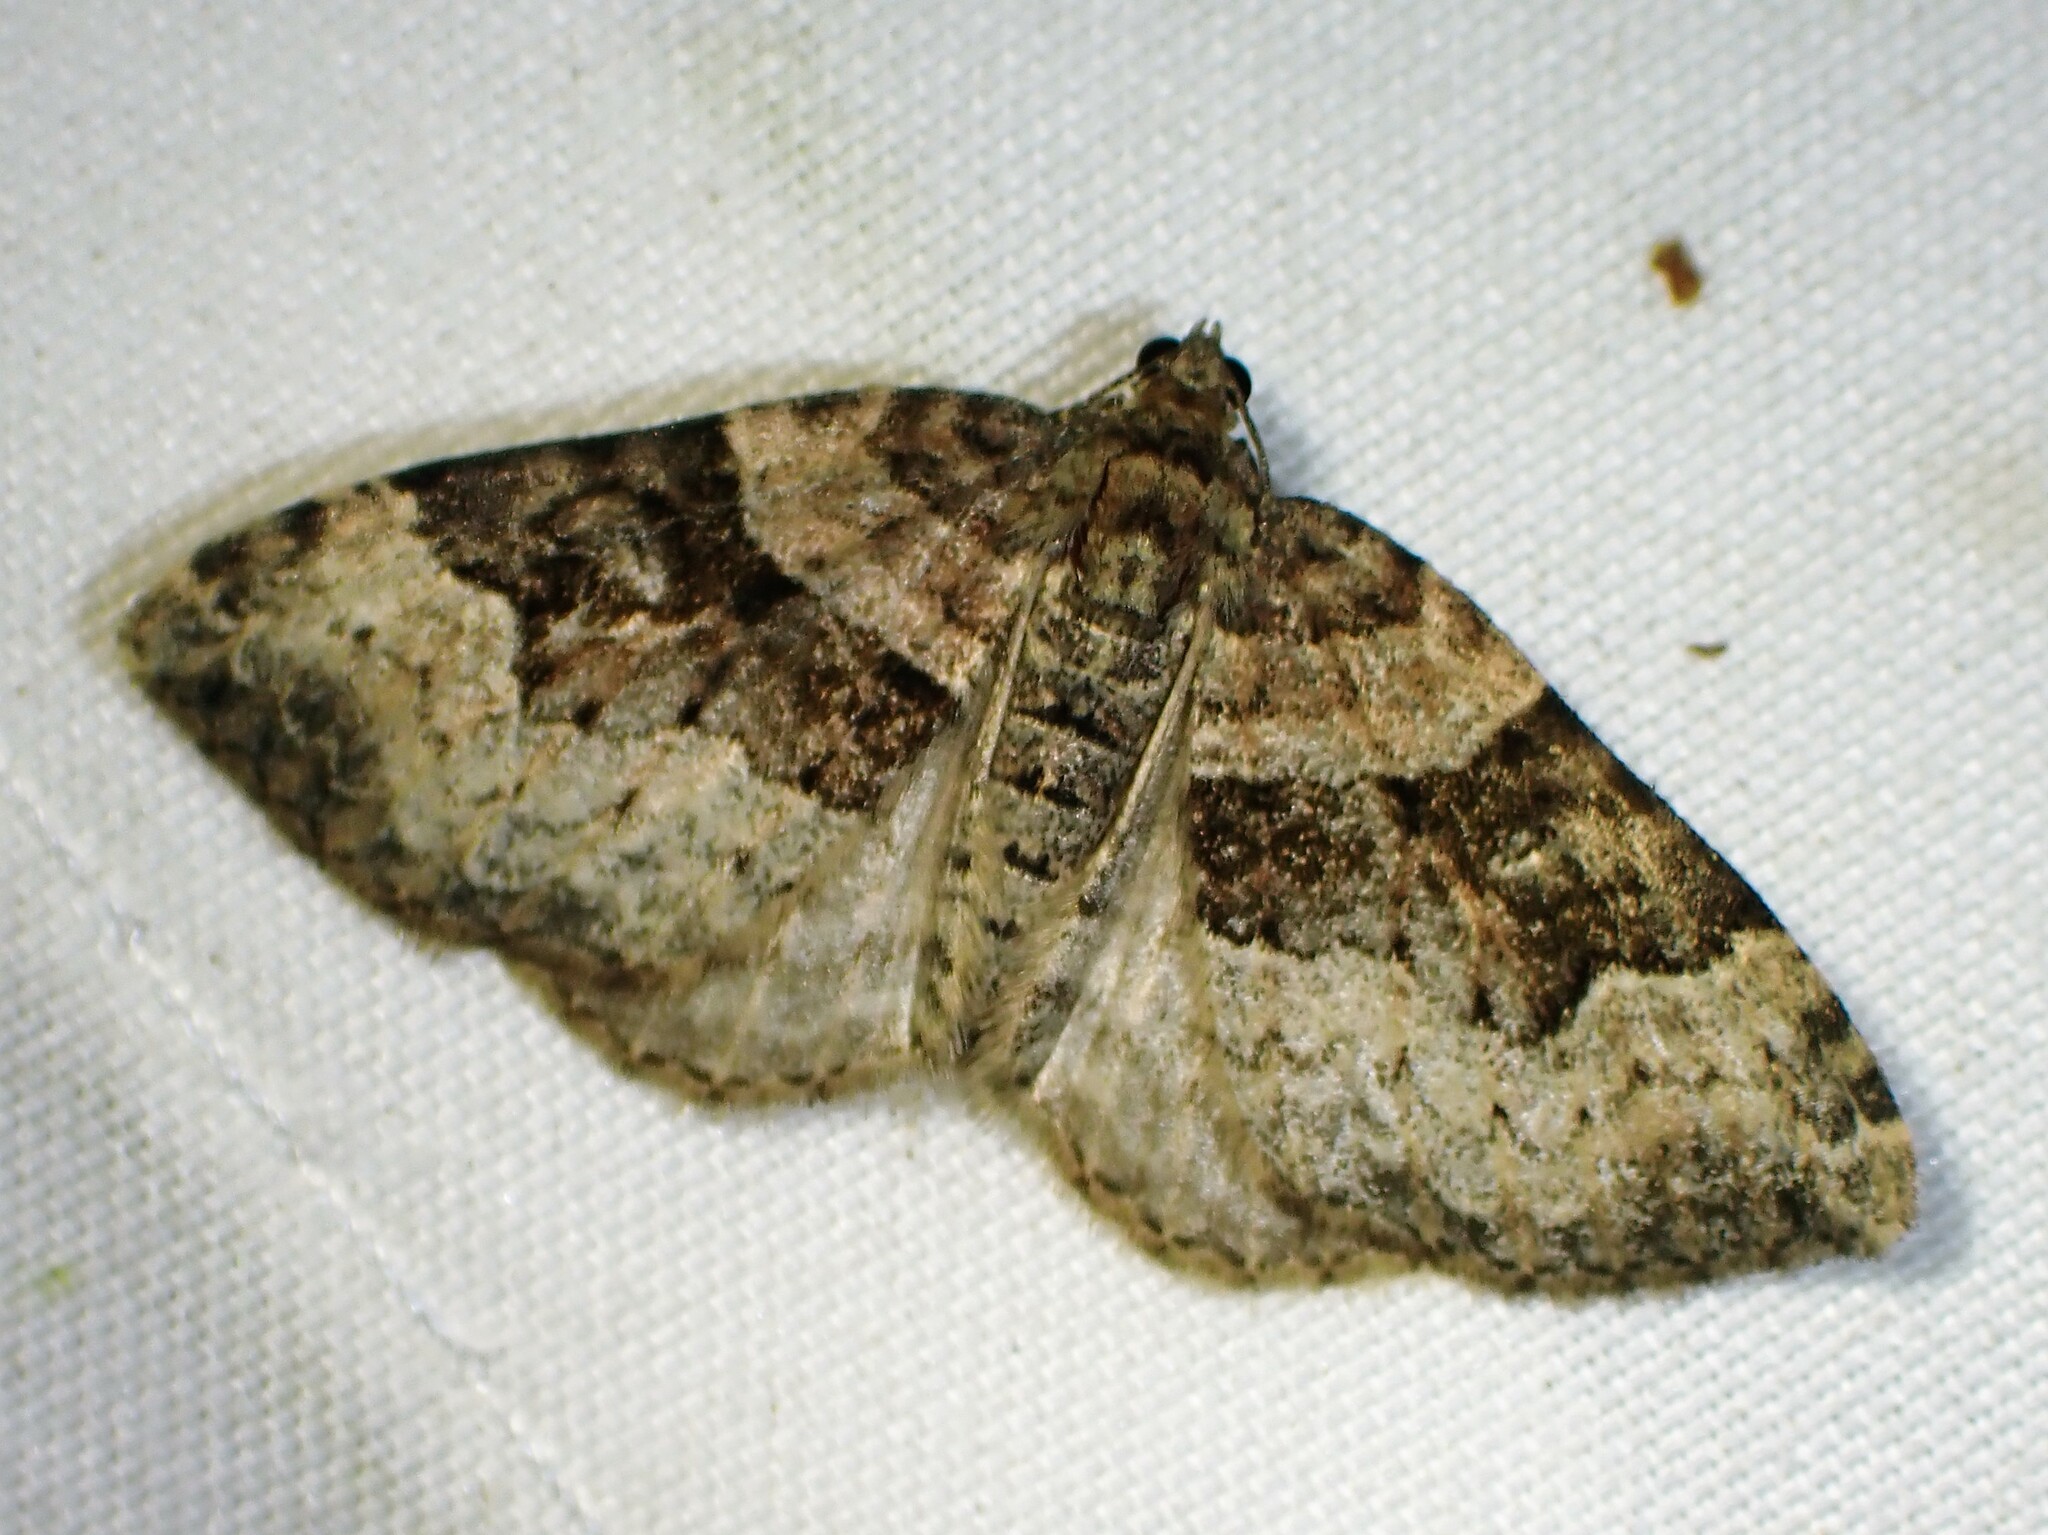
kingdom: Animalia
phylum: Arthropoda
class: Insecta
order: Lepidoptera
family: Geometridae
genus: Xanthorhoe
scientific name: Xanthorhoe lacustrata
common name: Toothed brown carpet
